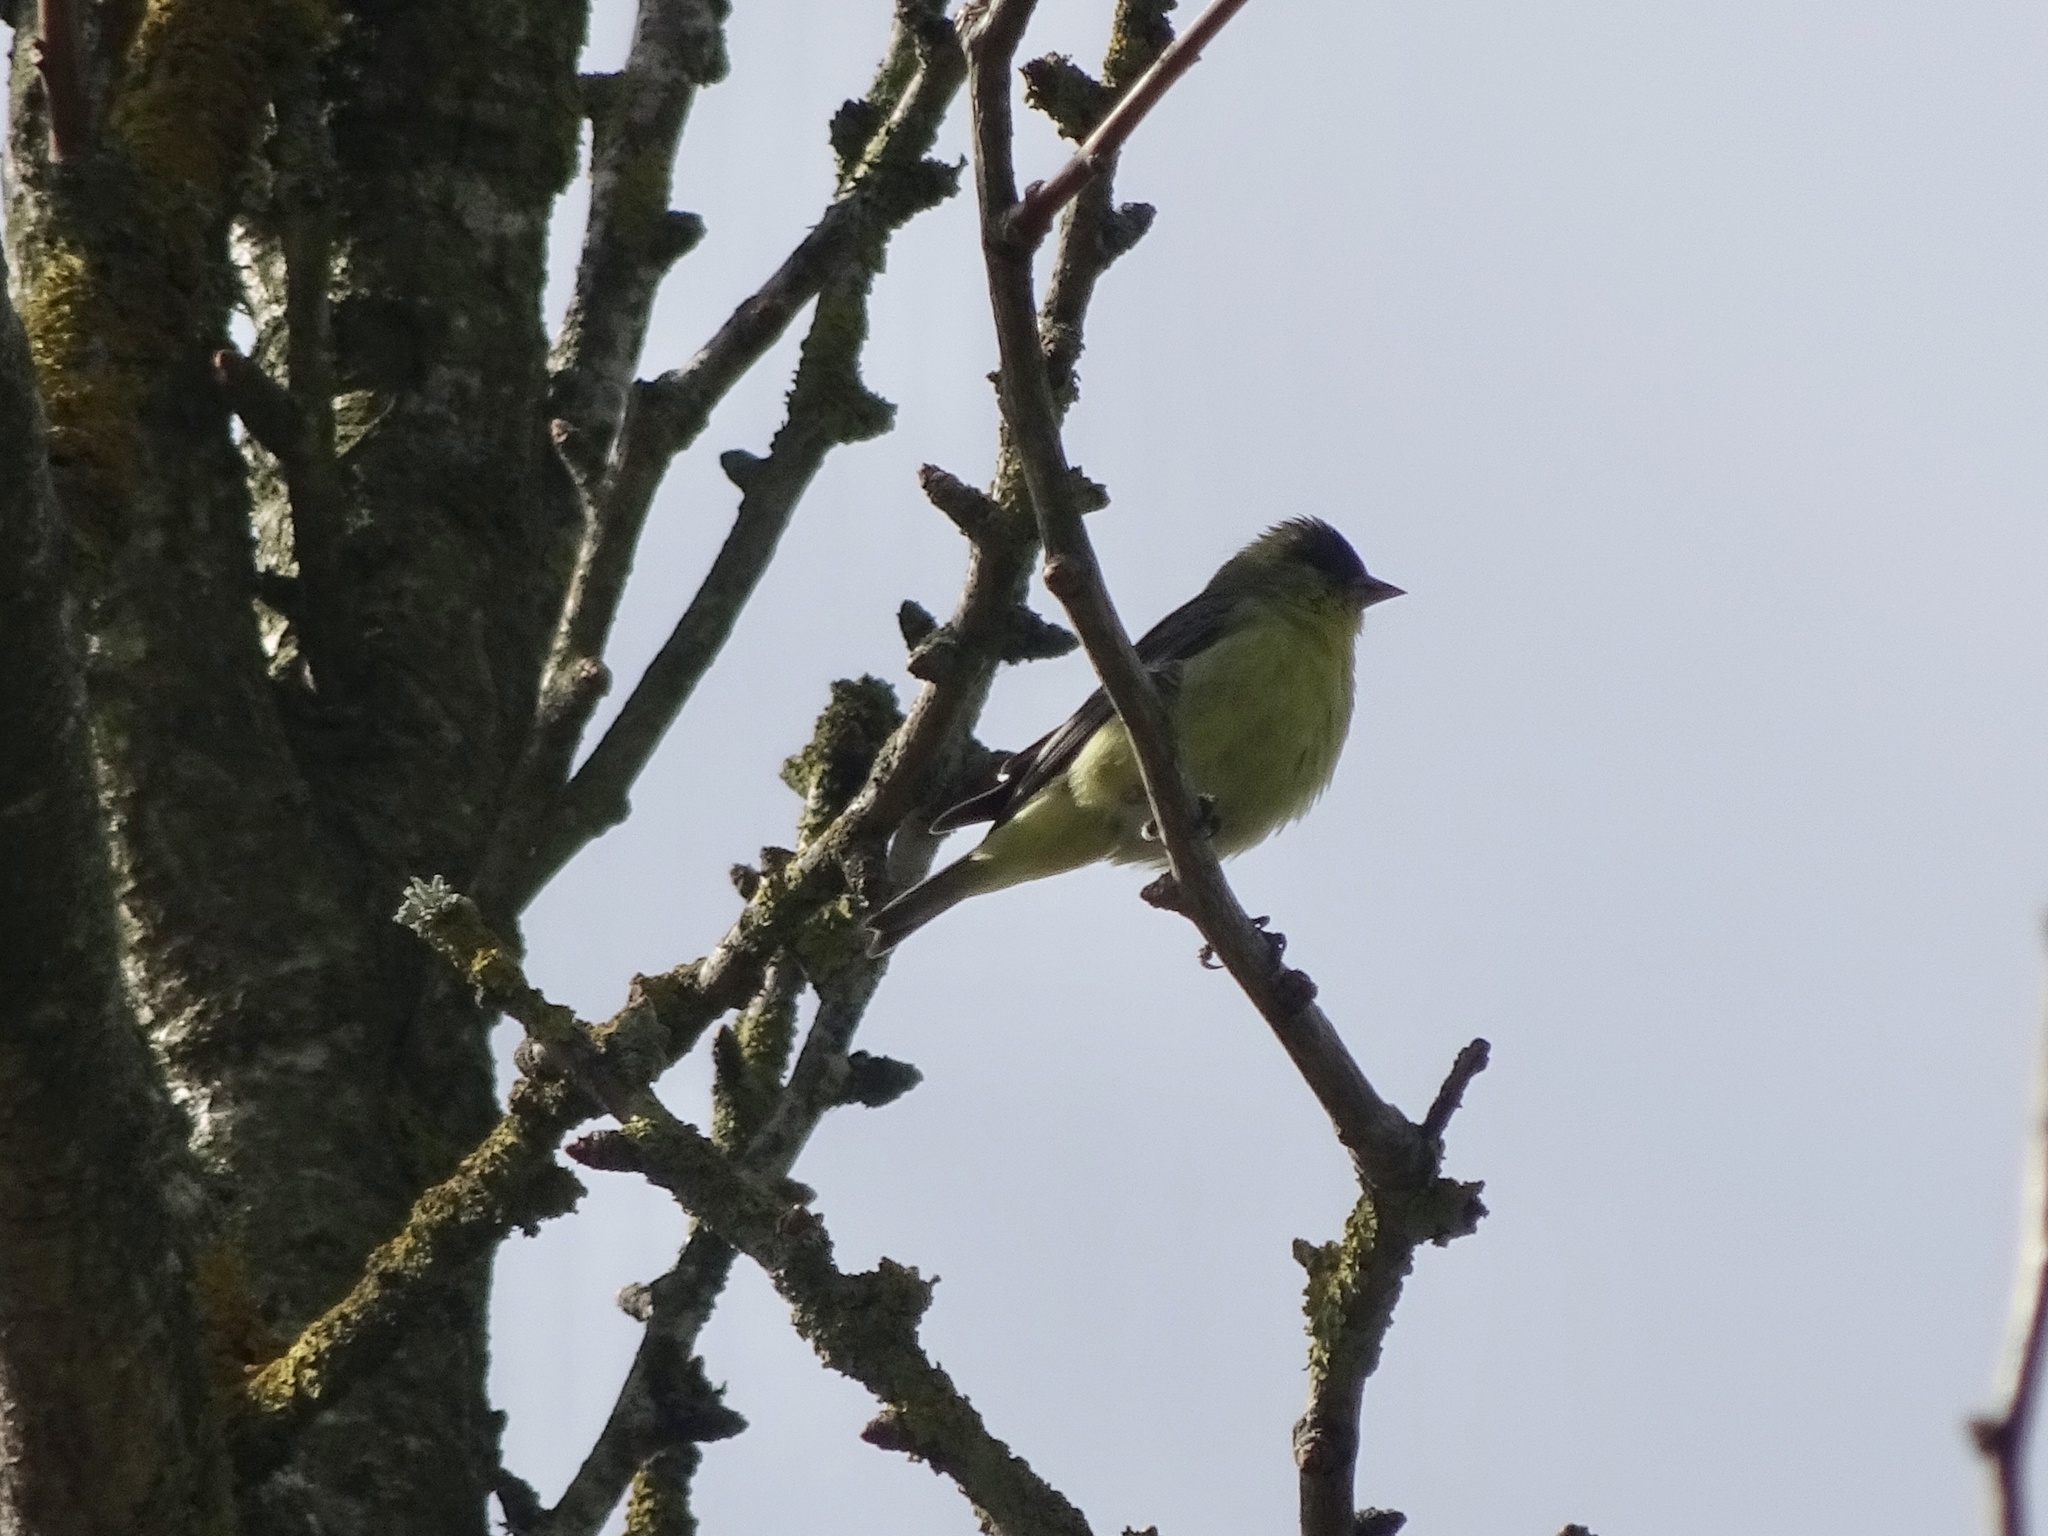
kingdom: Animalia
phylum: Chordata
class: Aves
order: Passeriformes
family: Fringillidae
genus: Spinus
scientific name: Spinus psaltria
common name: Lesser goldfinch
